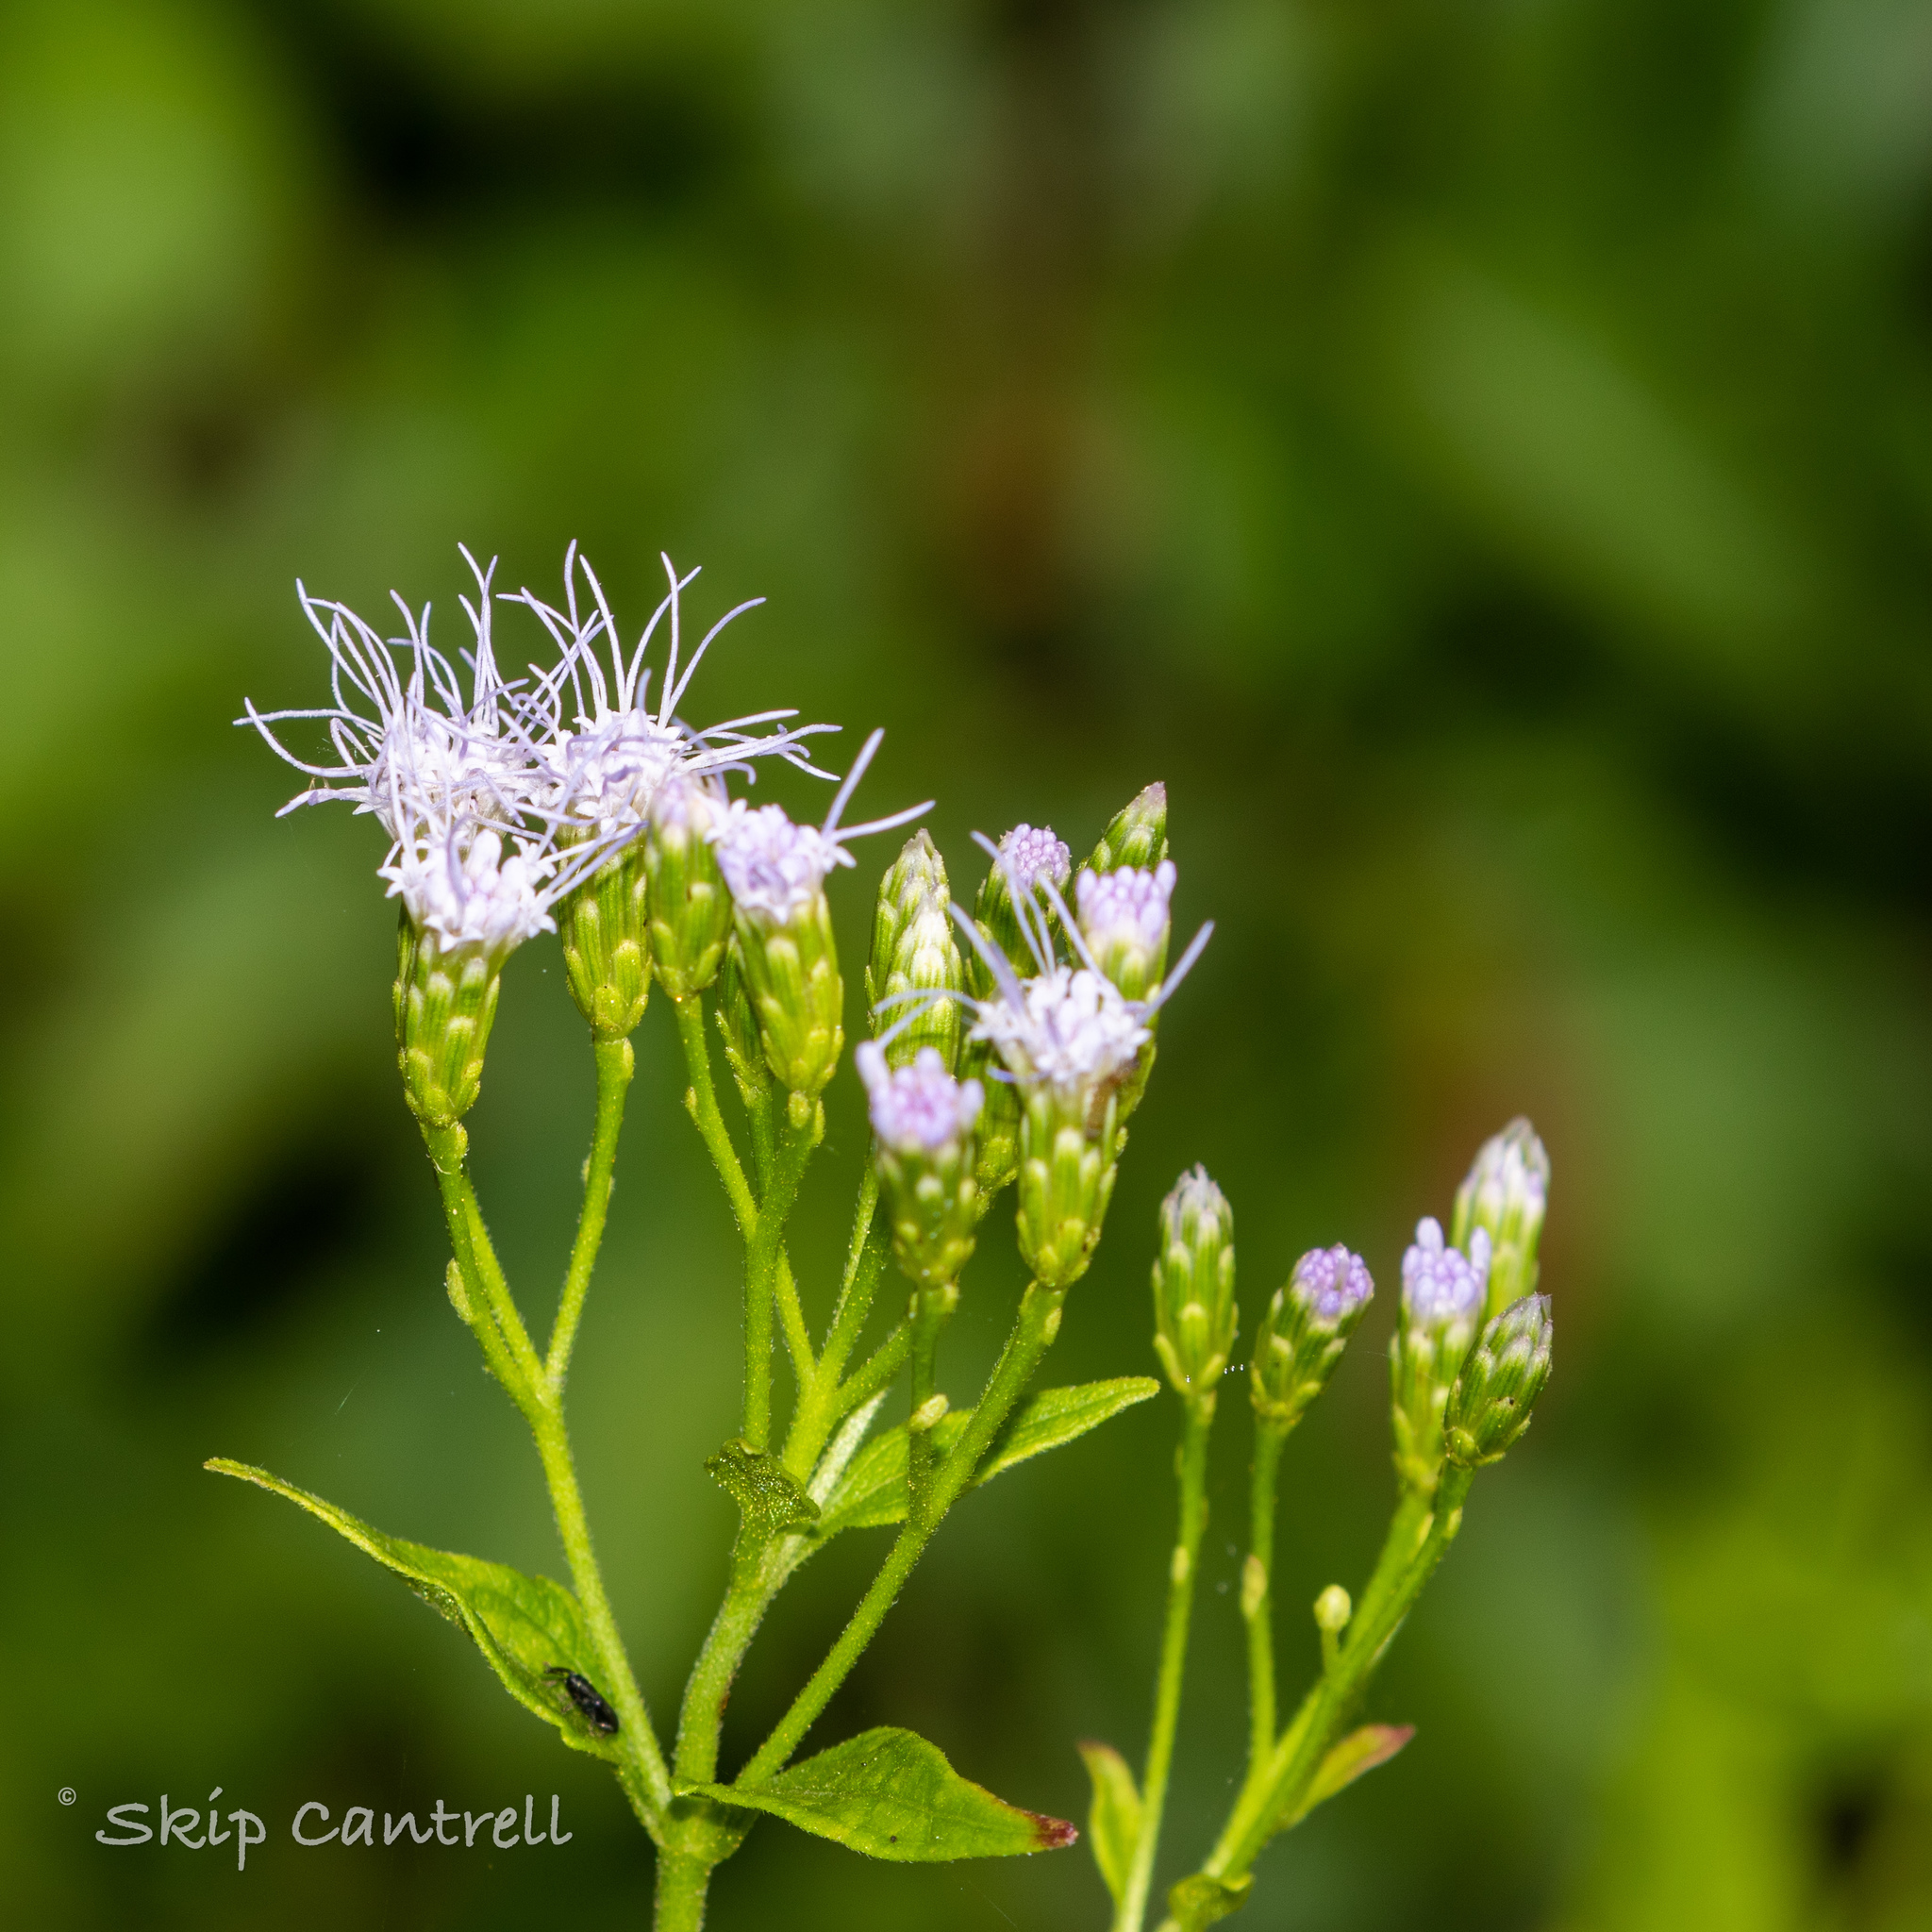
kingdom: Plantae
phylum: Tracheophyta
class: Magnoliopsida
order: Asterales
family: Asteraceae
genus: Chromolaena
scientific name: Chromolaena odorata
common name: Siamweed
